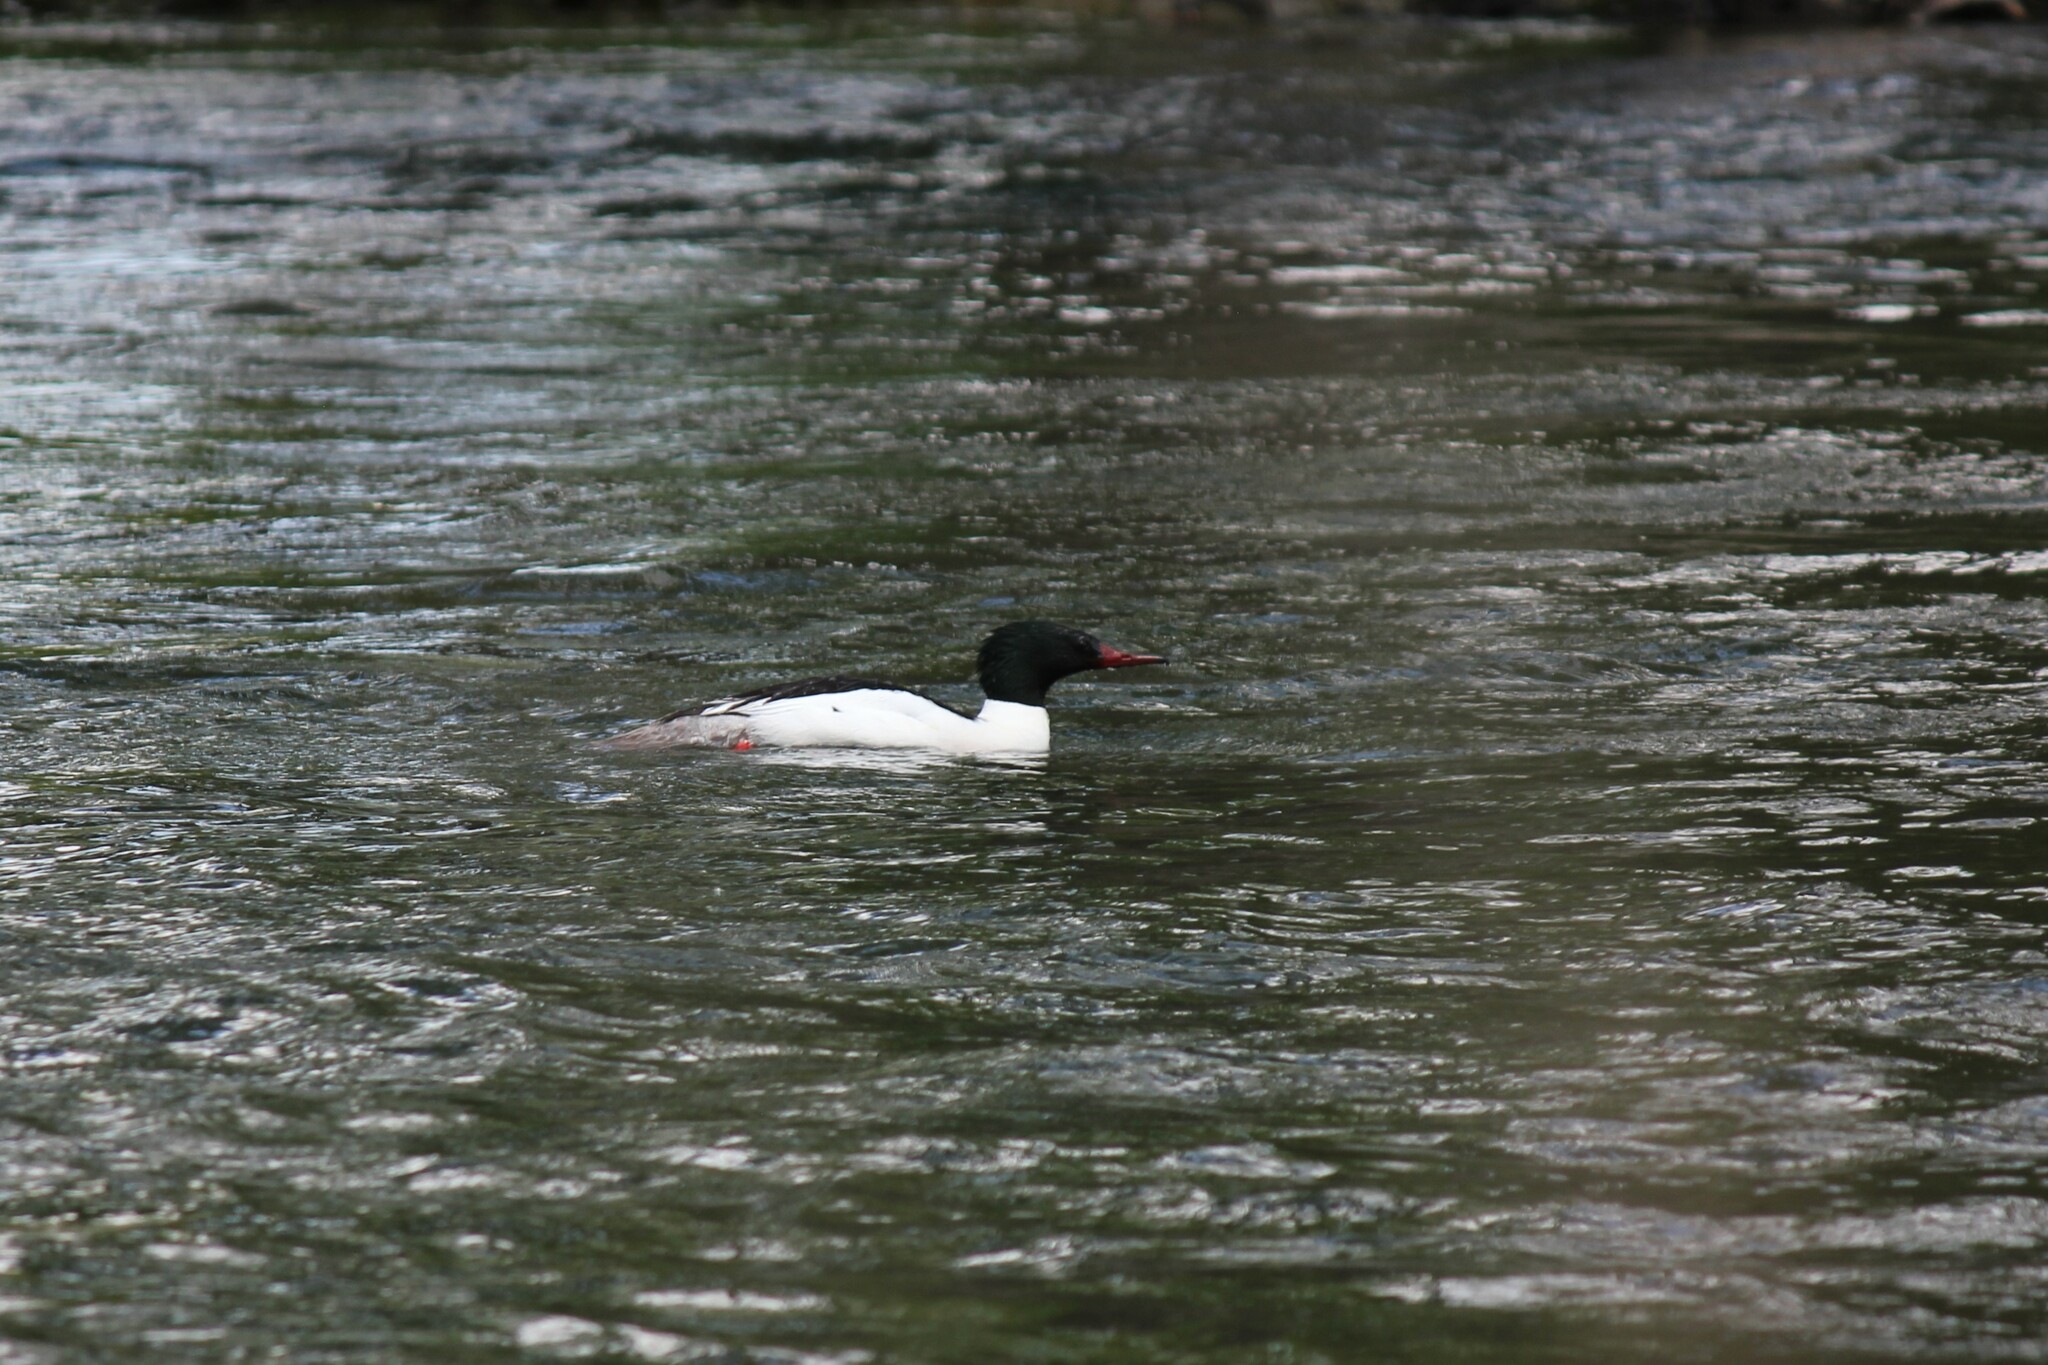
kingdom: Animalia
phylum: Chordata
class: Aves
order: Anseriformes
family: Anatidae
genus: Mergus
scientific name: Mergus merganser
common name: Common merganser
